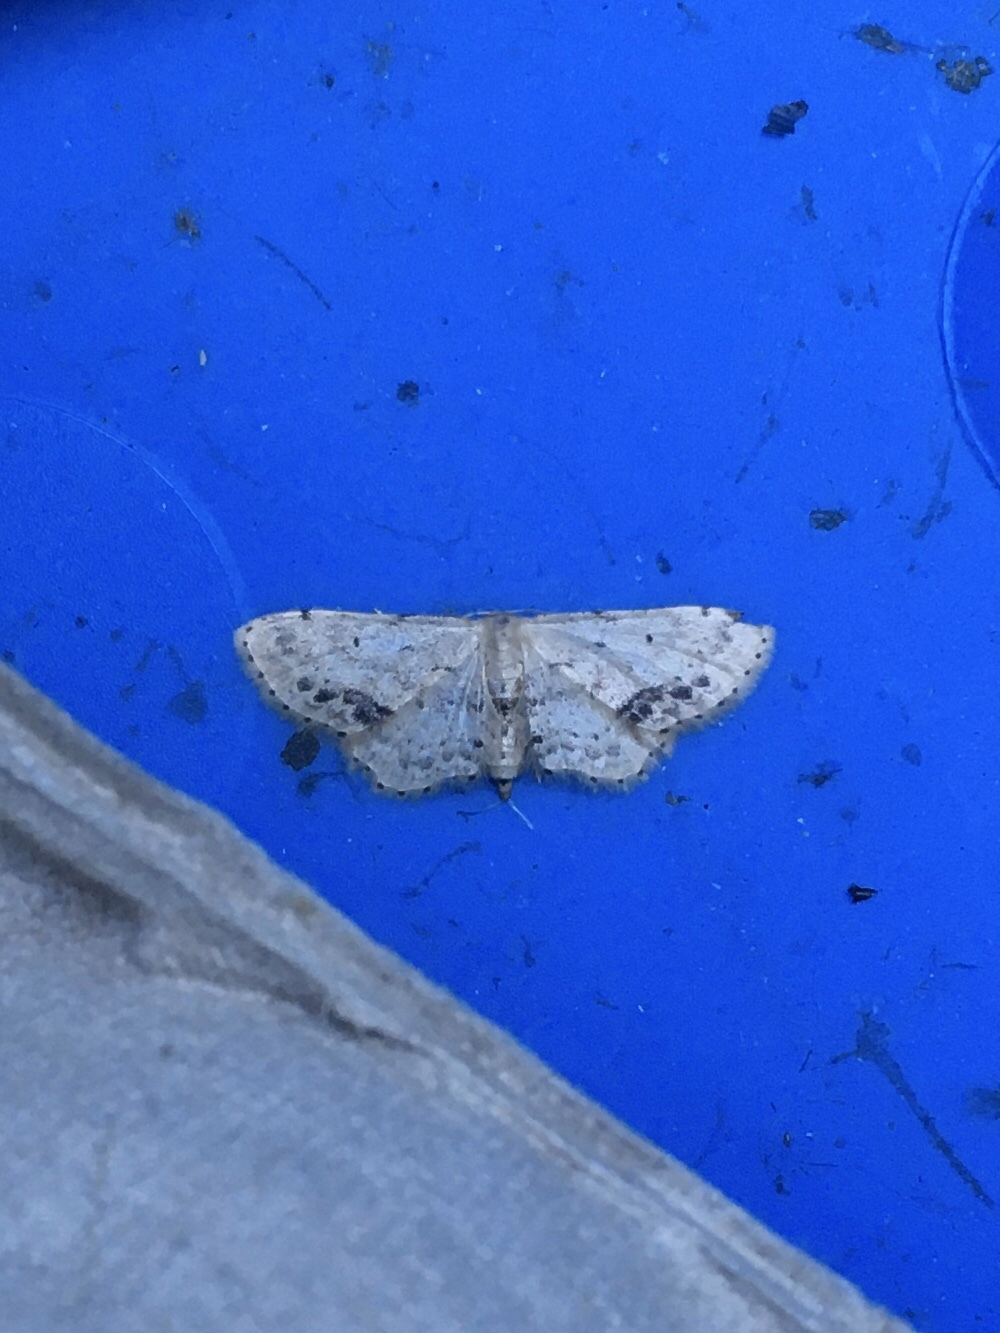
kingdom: Animalia
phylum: Arthropoda
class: Insecta
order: Lepidoptera
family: Geometridae
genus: Idaea
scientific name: Idaea dimidiata
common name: Single-dotted wave
